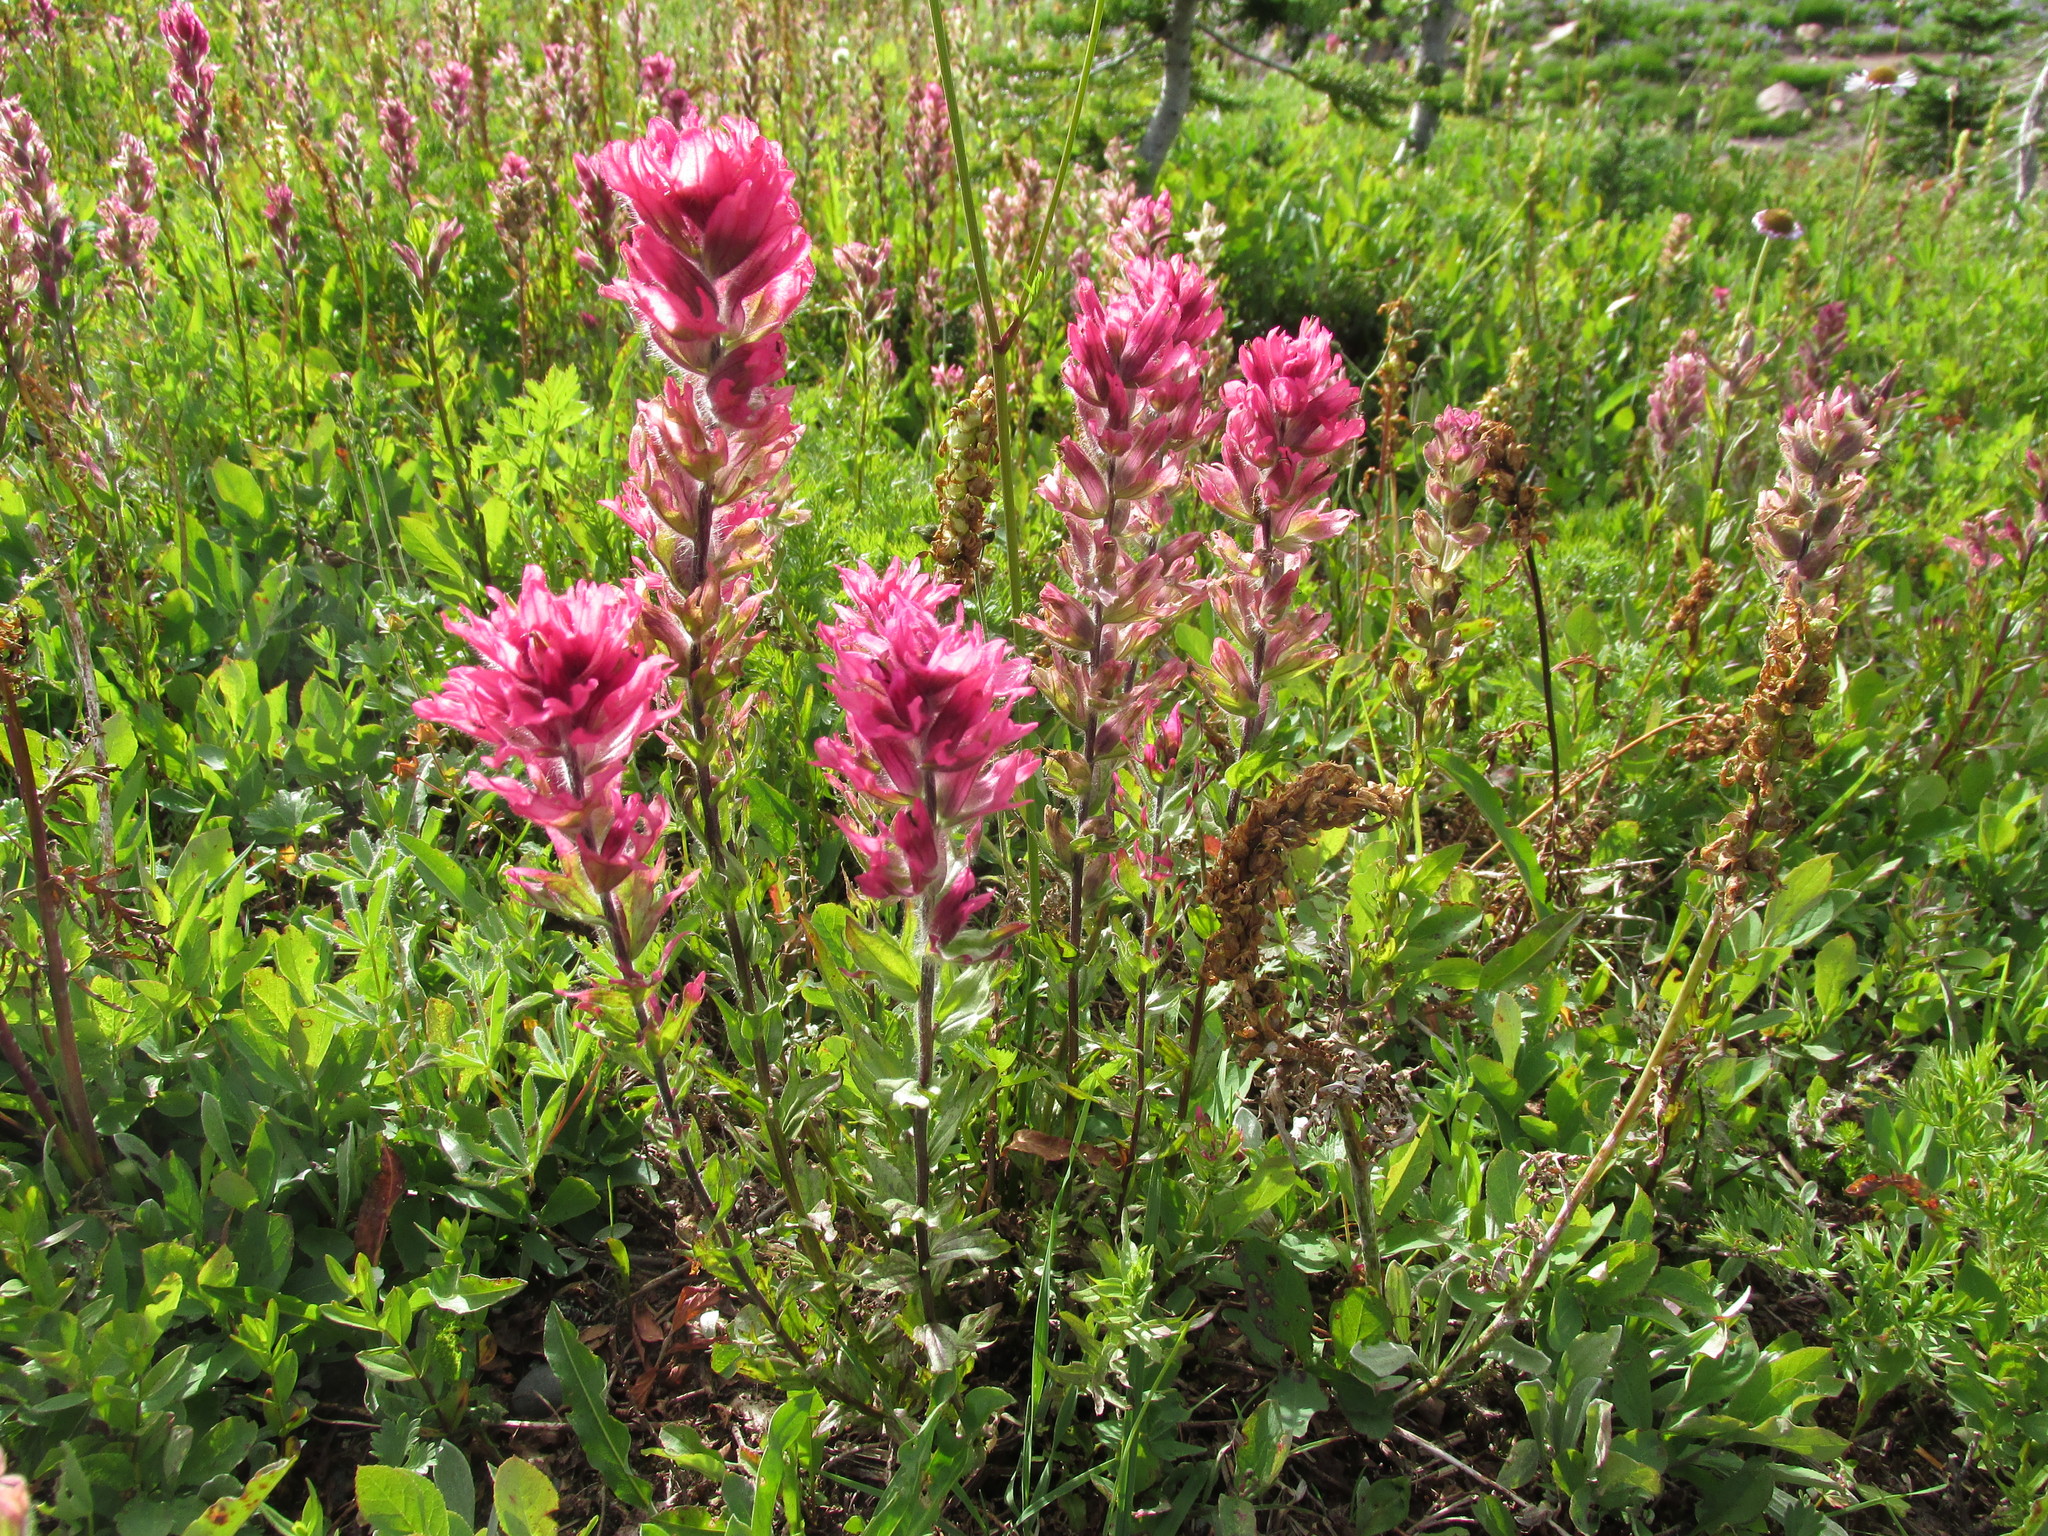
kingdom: Plantae
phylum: Tracheophyta
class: Magnoliopsida
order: Lamiales
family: Orobanchaceae
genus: Castilleja
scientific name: Castilleja parviflora
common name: Mountain paintbrush
